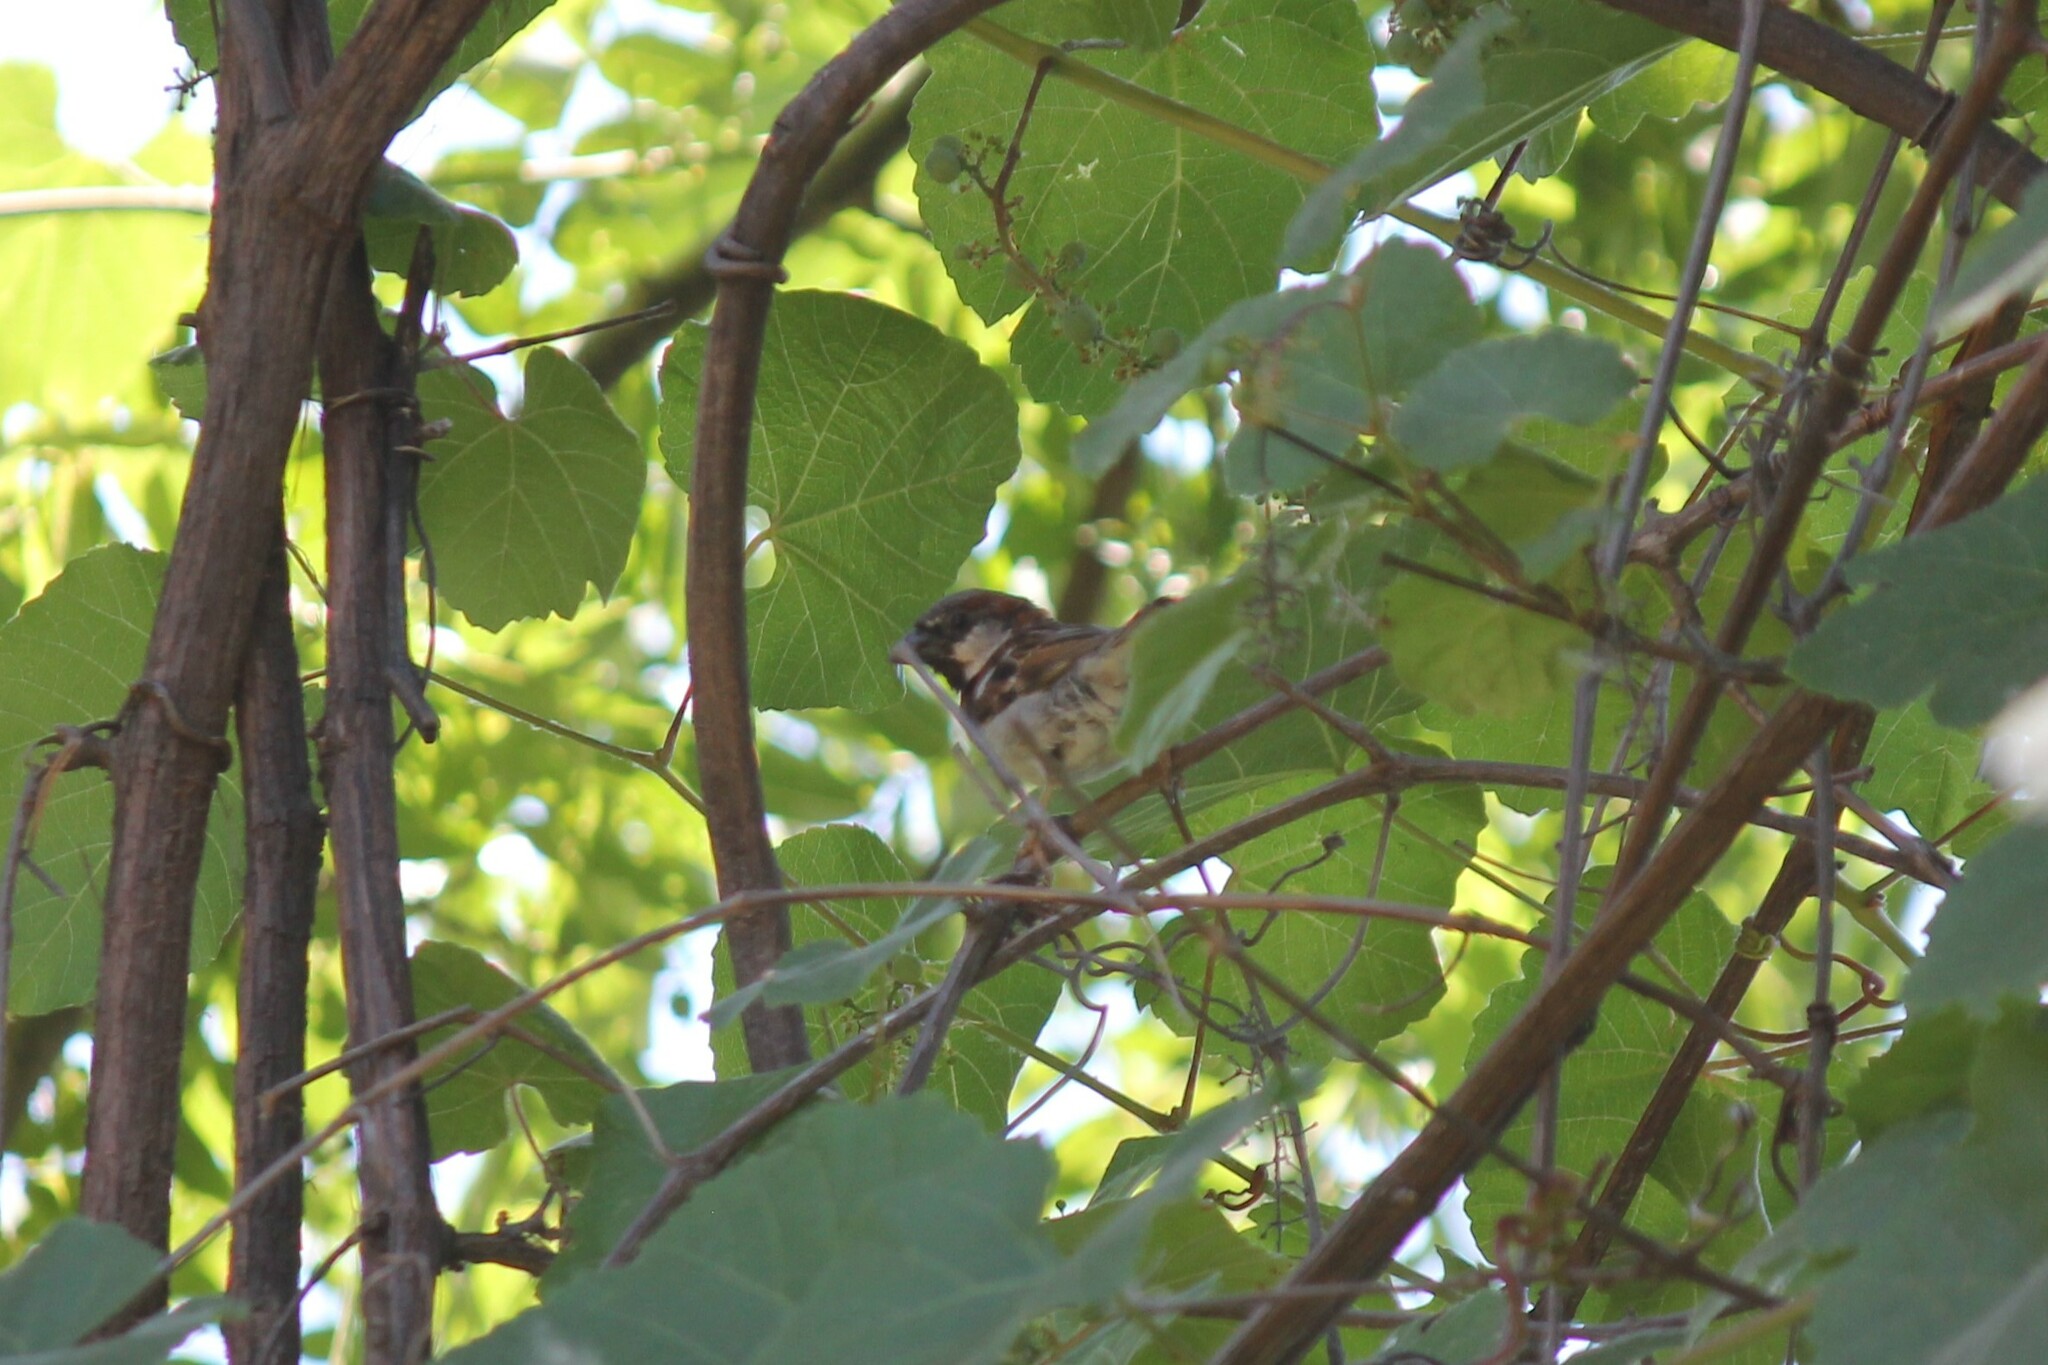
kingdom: Animalia
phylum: Chordata
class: Aves
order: Passeriformes
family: Passeridae
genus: Passer
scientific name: Passer domesticus
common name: House sparrow
